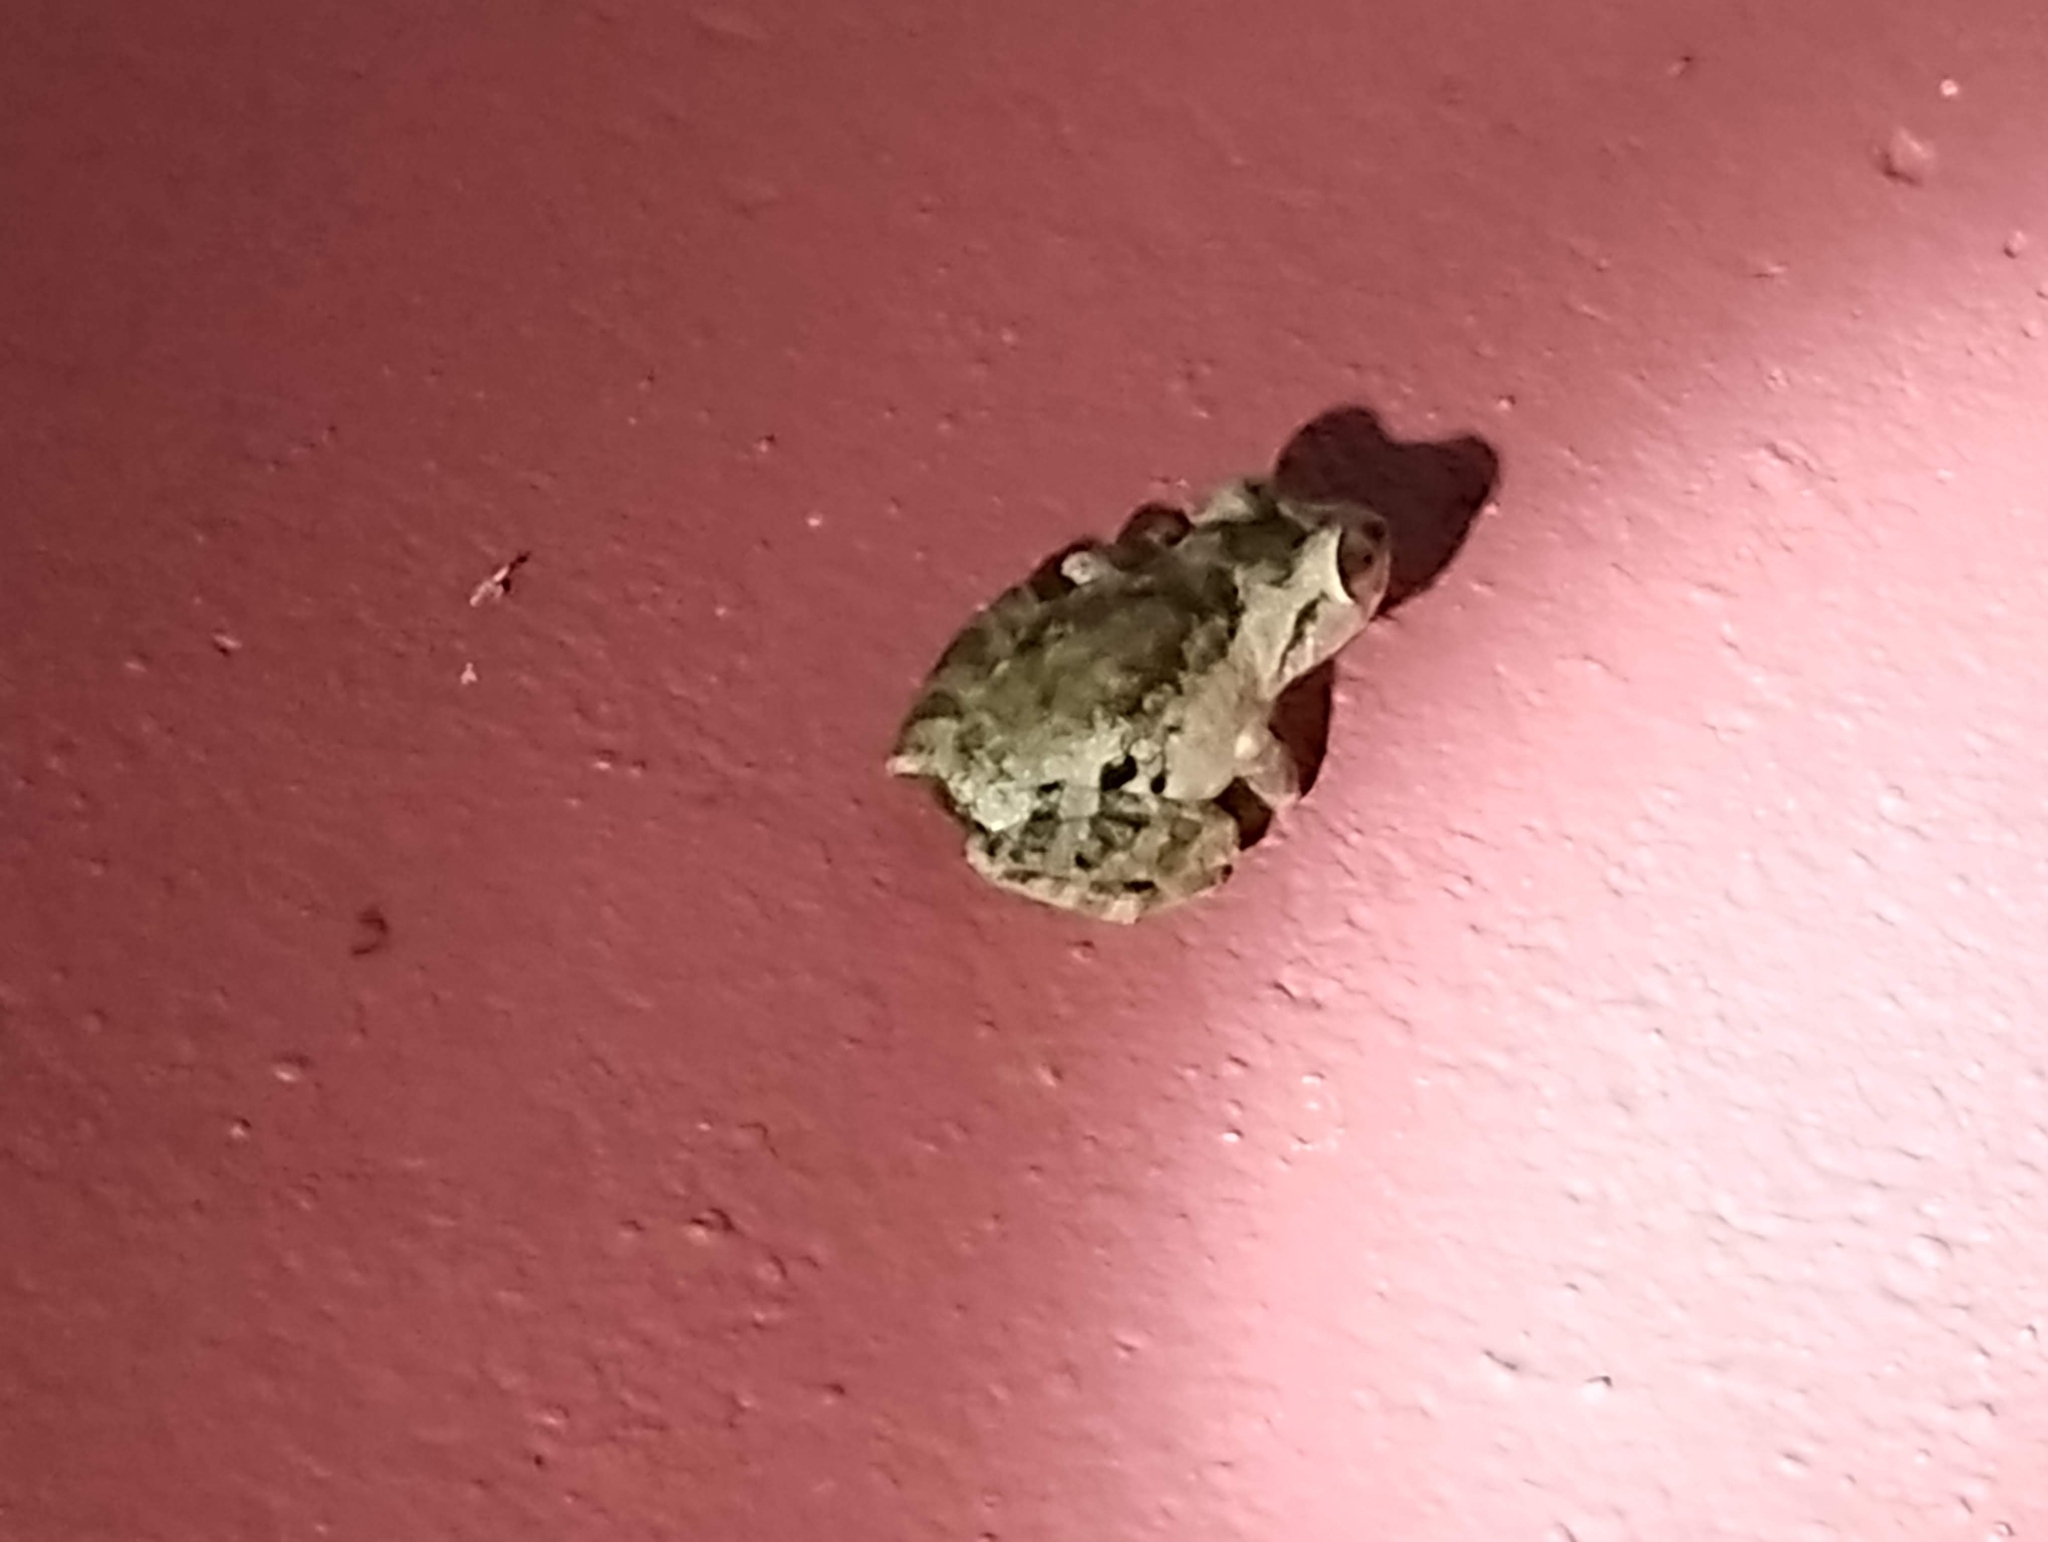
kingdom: Animalia
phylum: Chordata
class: Amphibia
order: Anura
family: Rhacophoridae
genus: Raorchestes
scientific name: Raorchestes anili
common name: Anil's bush frog
